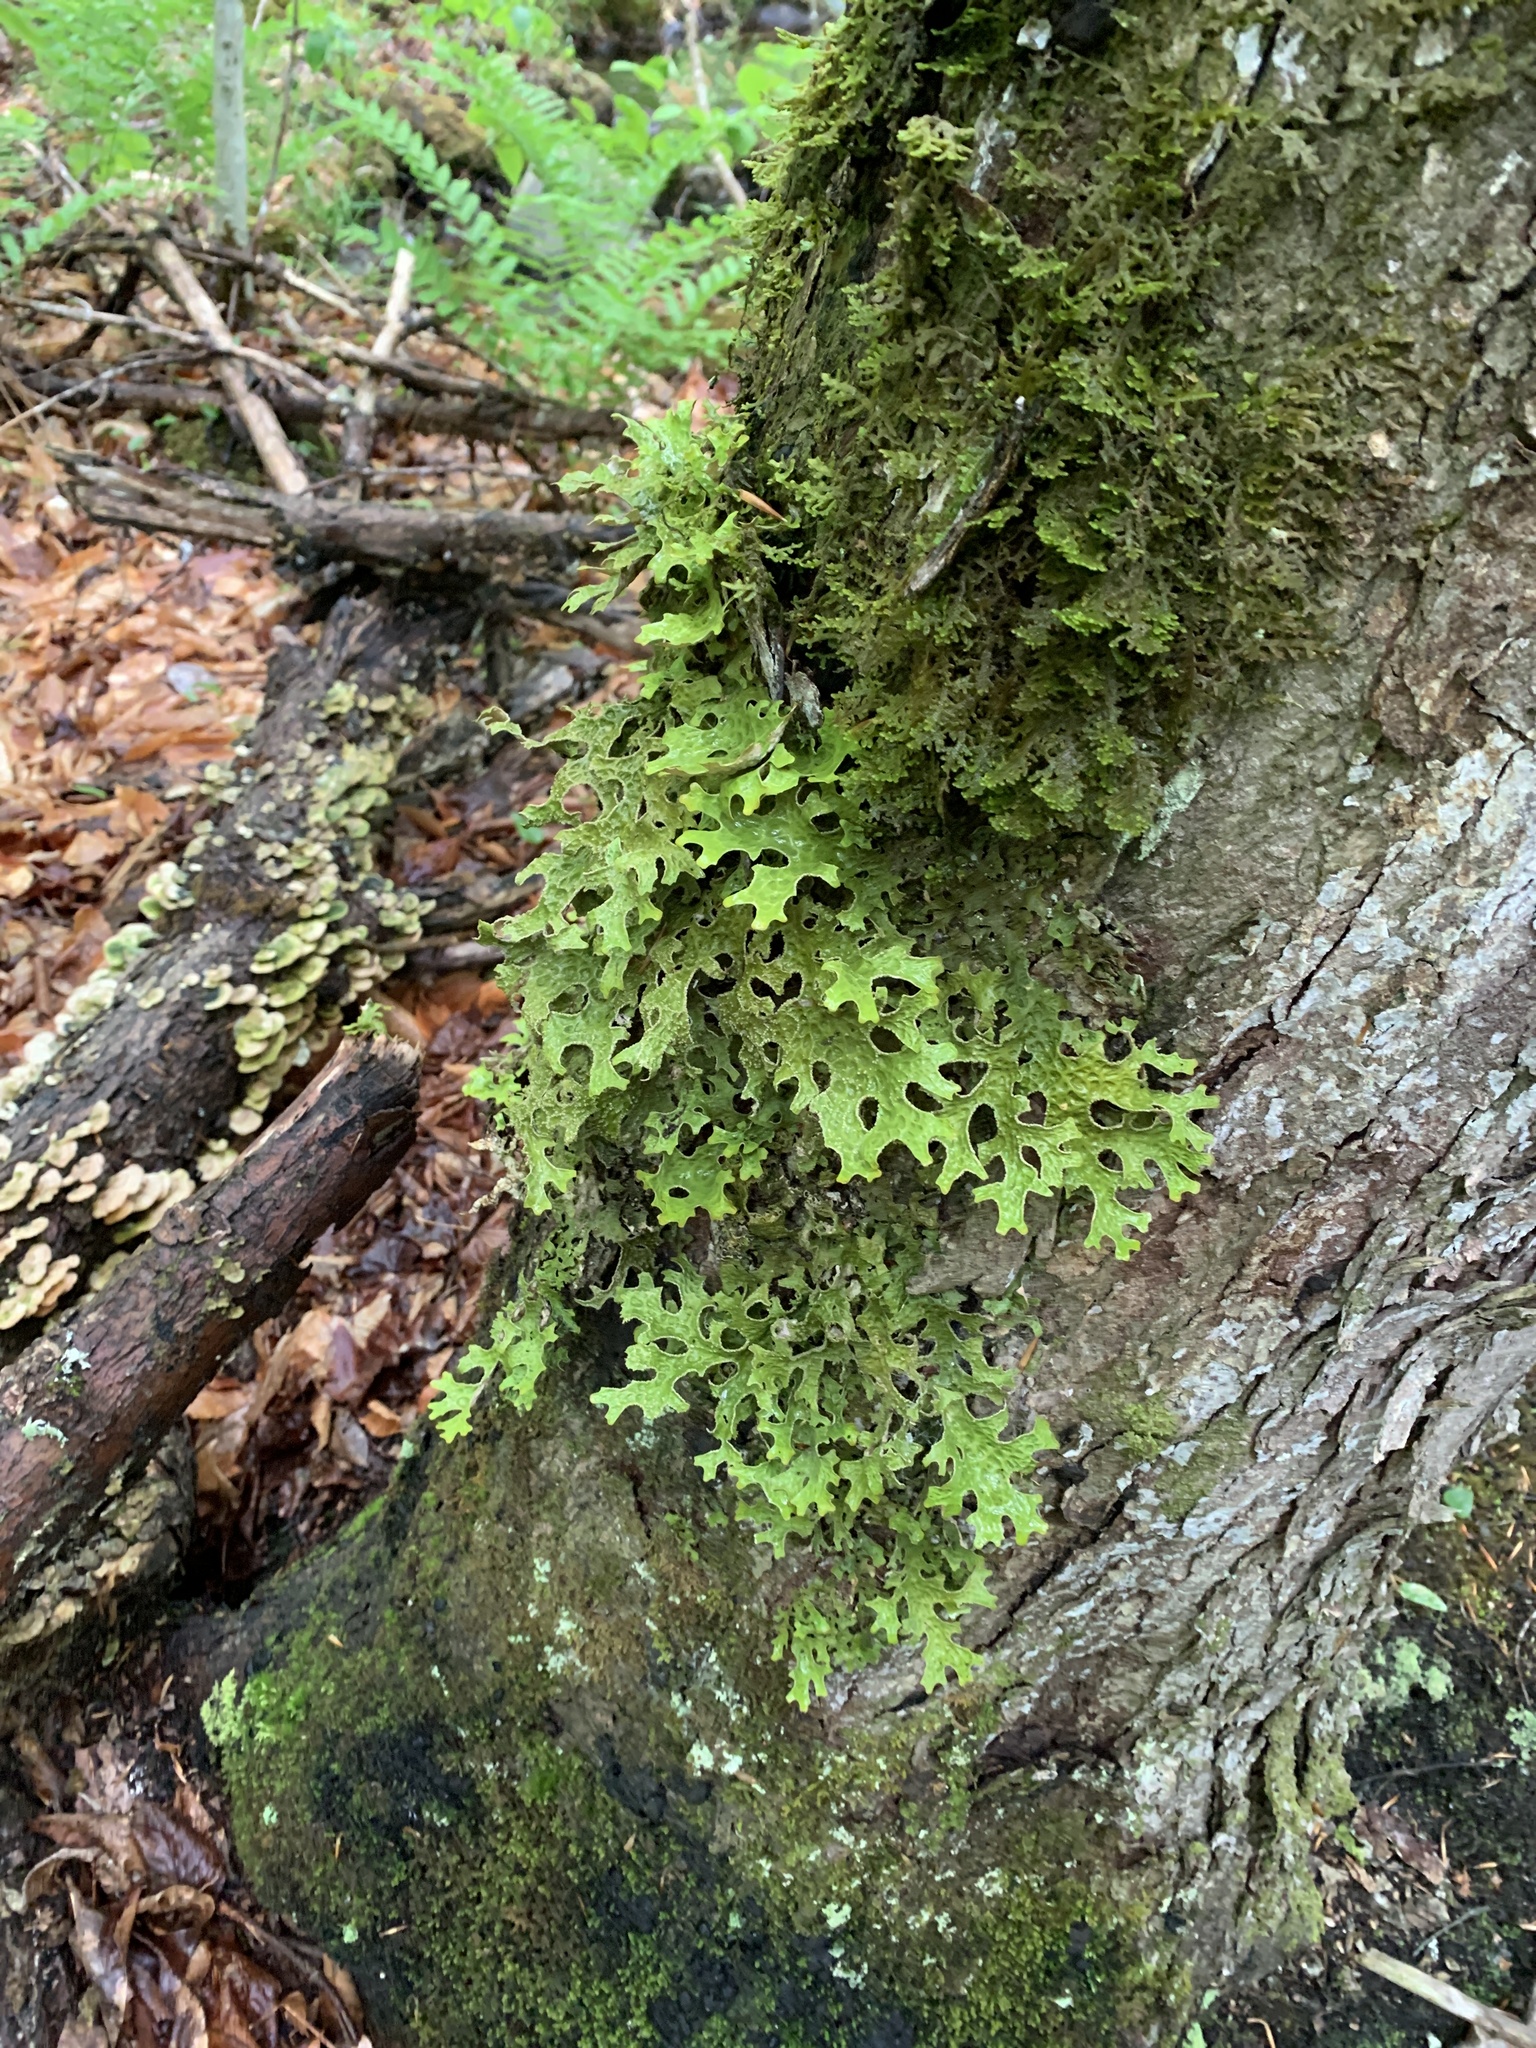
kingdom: Fungi
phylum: Ascomycota
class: Lecanoromycetes
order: Peltigerales
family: Lobariaceae
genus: Lobaria
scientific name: Lobaria pulmonaria
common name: Lungwort
